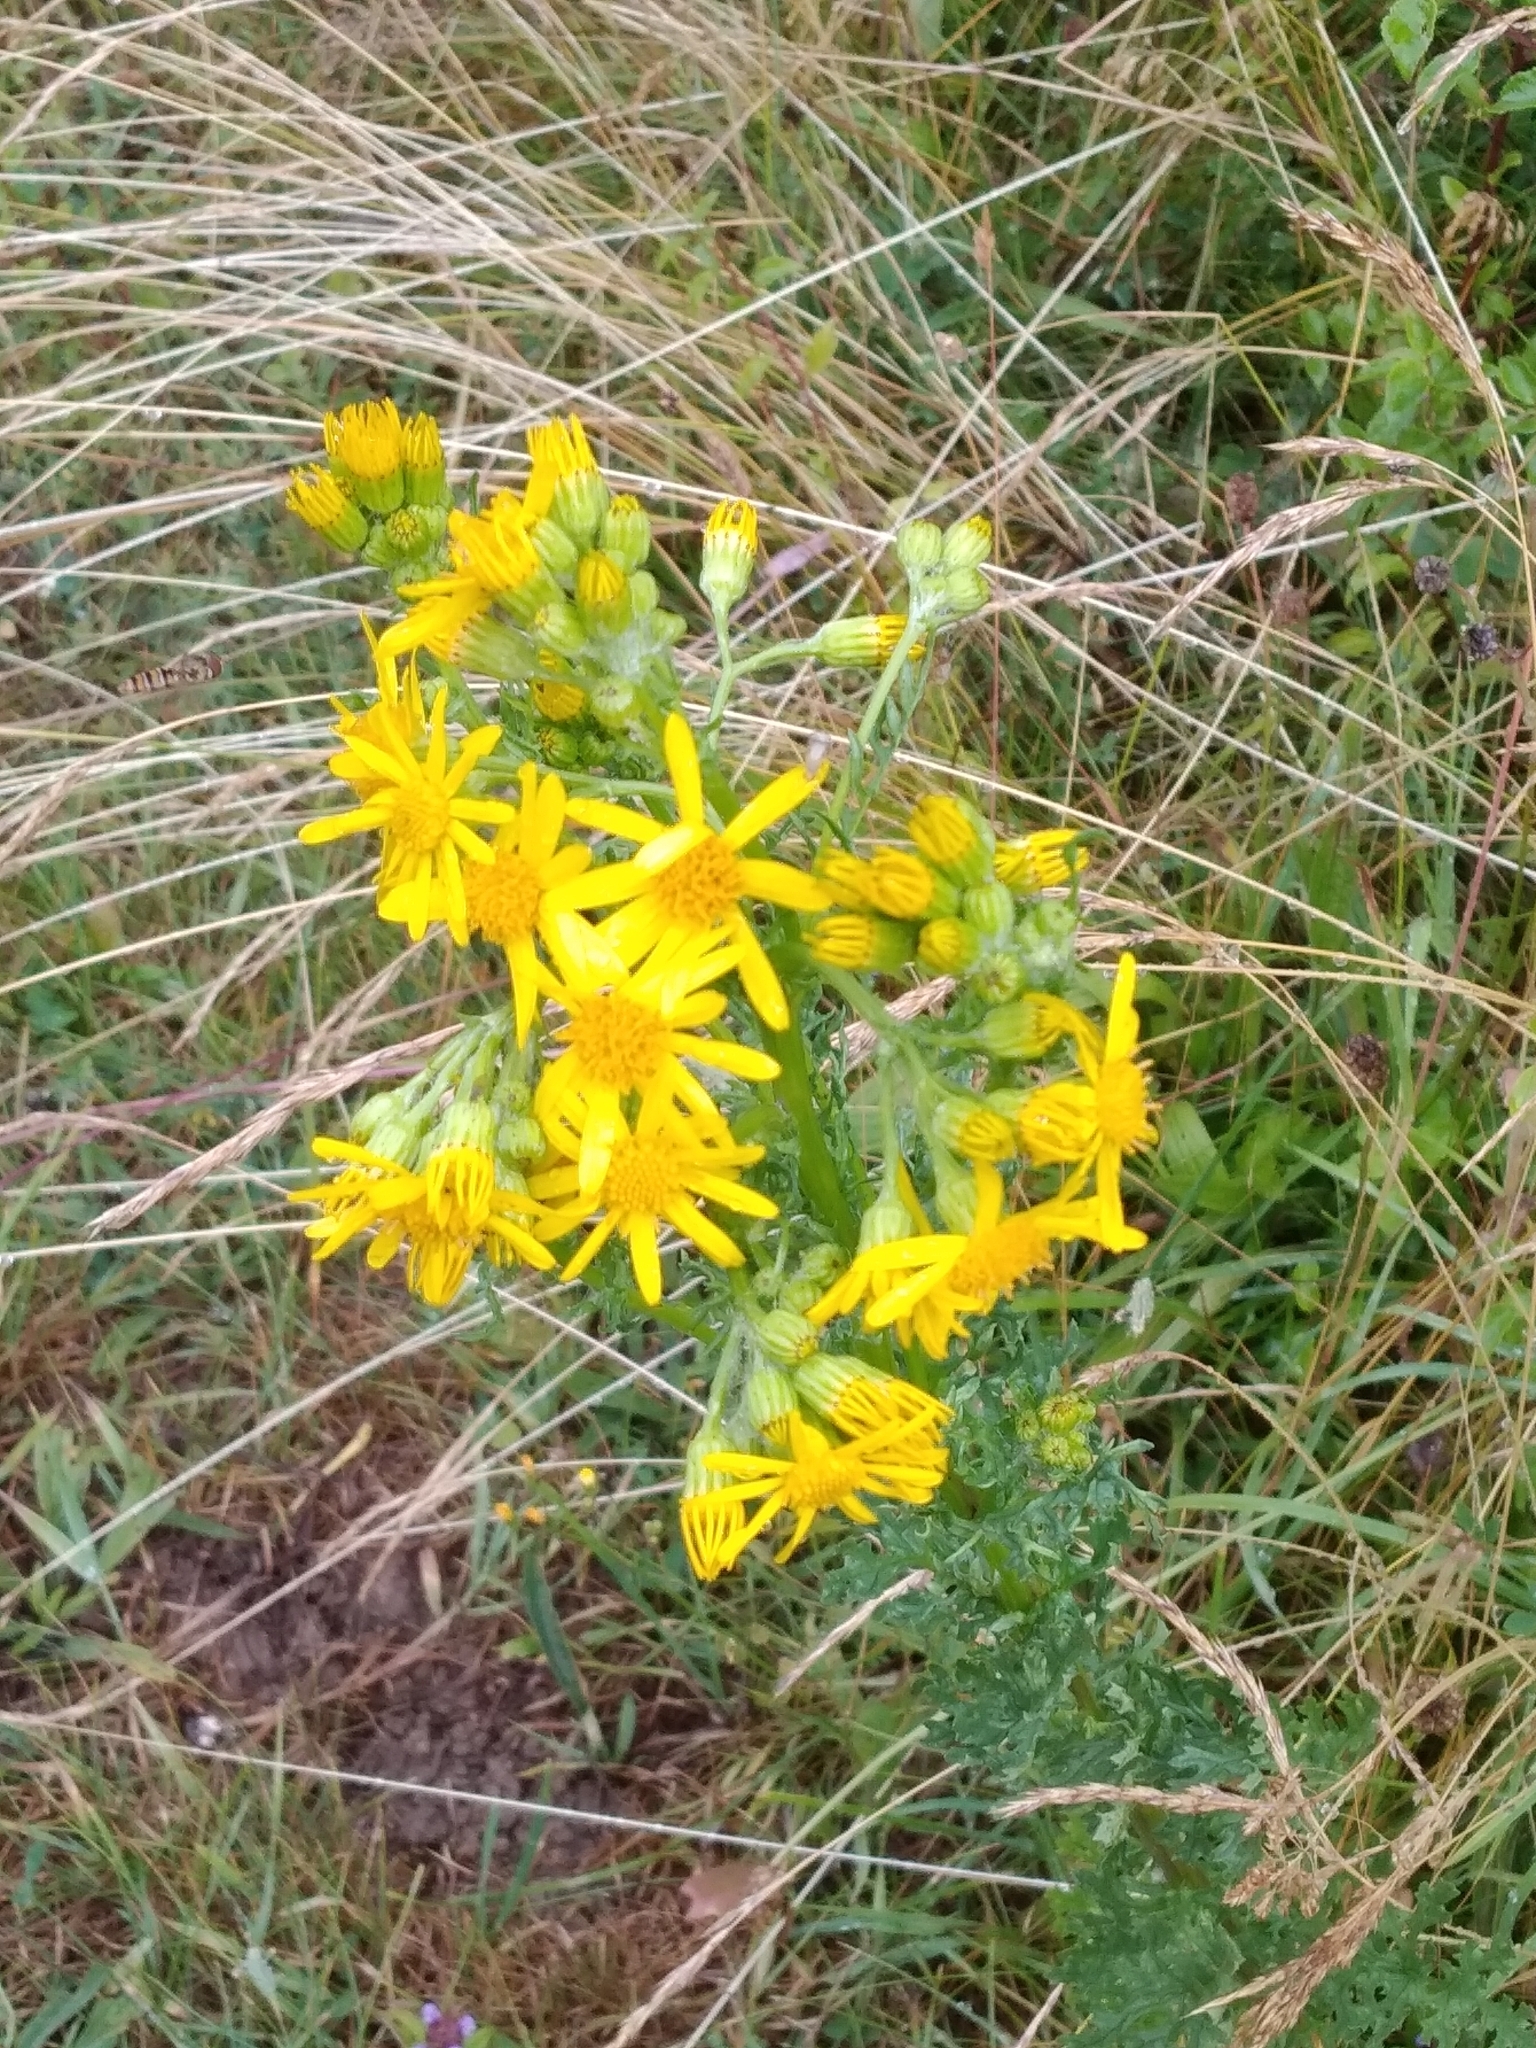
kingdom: Plantae
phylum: Tracheophyta
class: Magnoliopsida
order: Asterales
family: Asteraceae
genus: Jacobaea
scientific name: Jacobaea vulgaris
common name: Stinking willie
